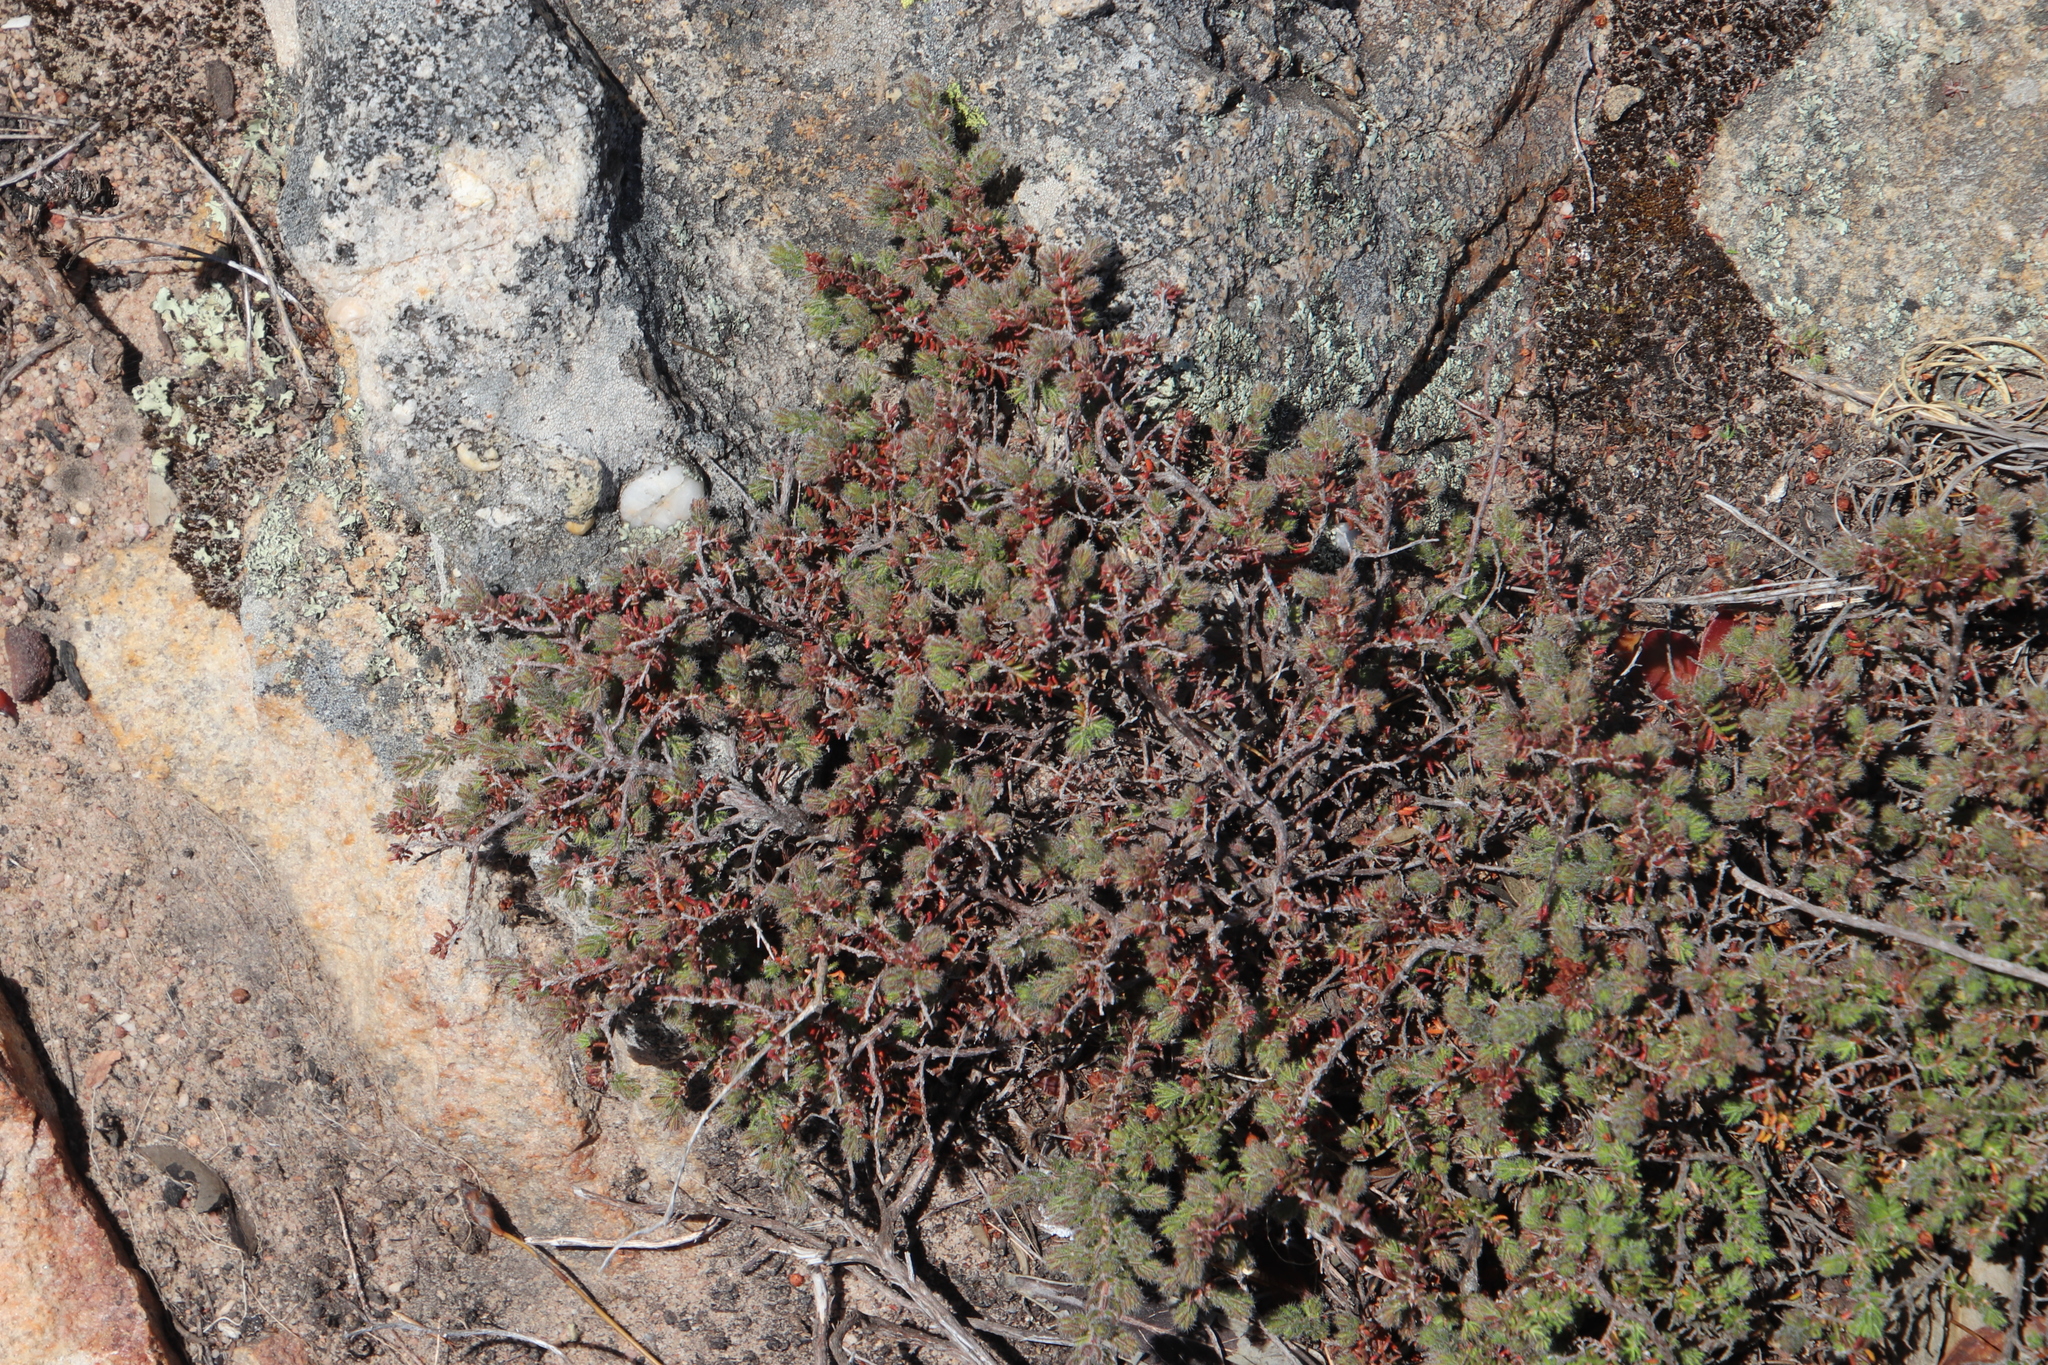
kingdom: Plantae
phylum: Tracheophyta
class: Magnoliopsida
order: Ericales
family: Ericaceae
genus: Erica
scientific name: Erica totta
